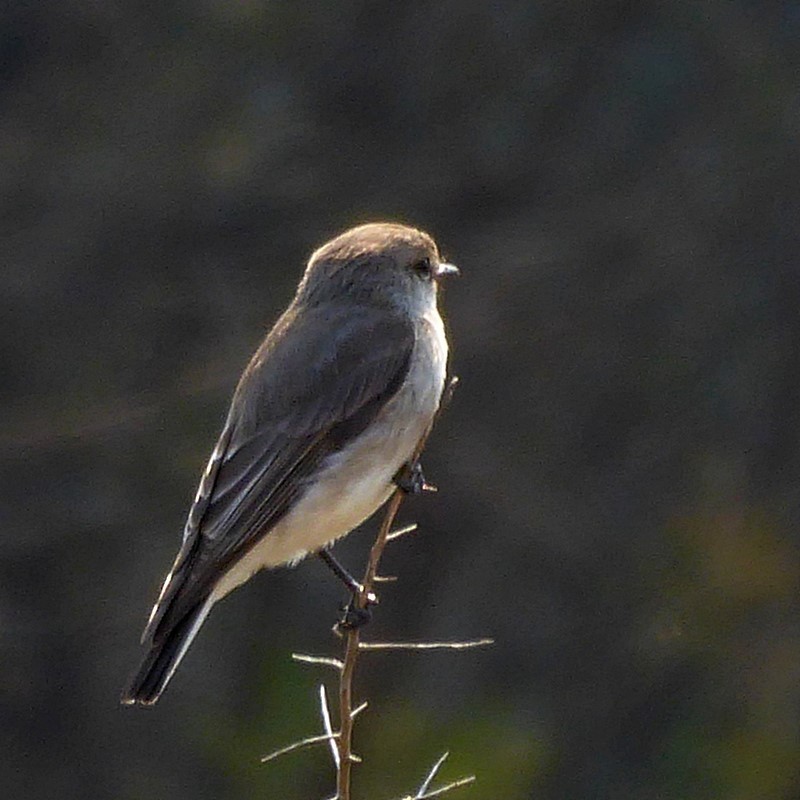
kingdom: Animalia
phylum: Chordata
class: Aves
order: Passeriformes
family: Petroicidae
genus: Microeca
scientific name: Microeca fascinans
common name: Jacky winter
